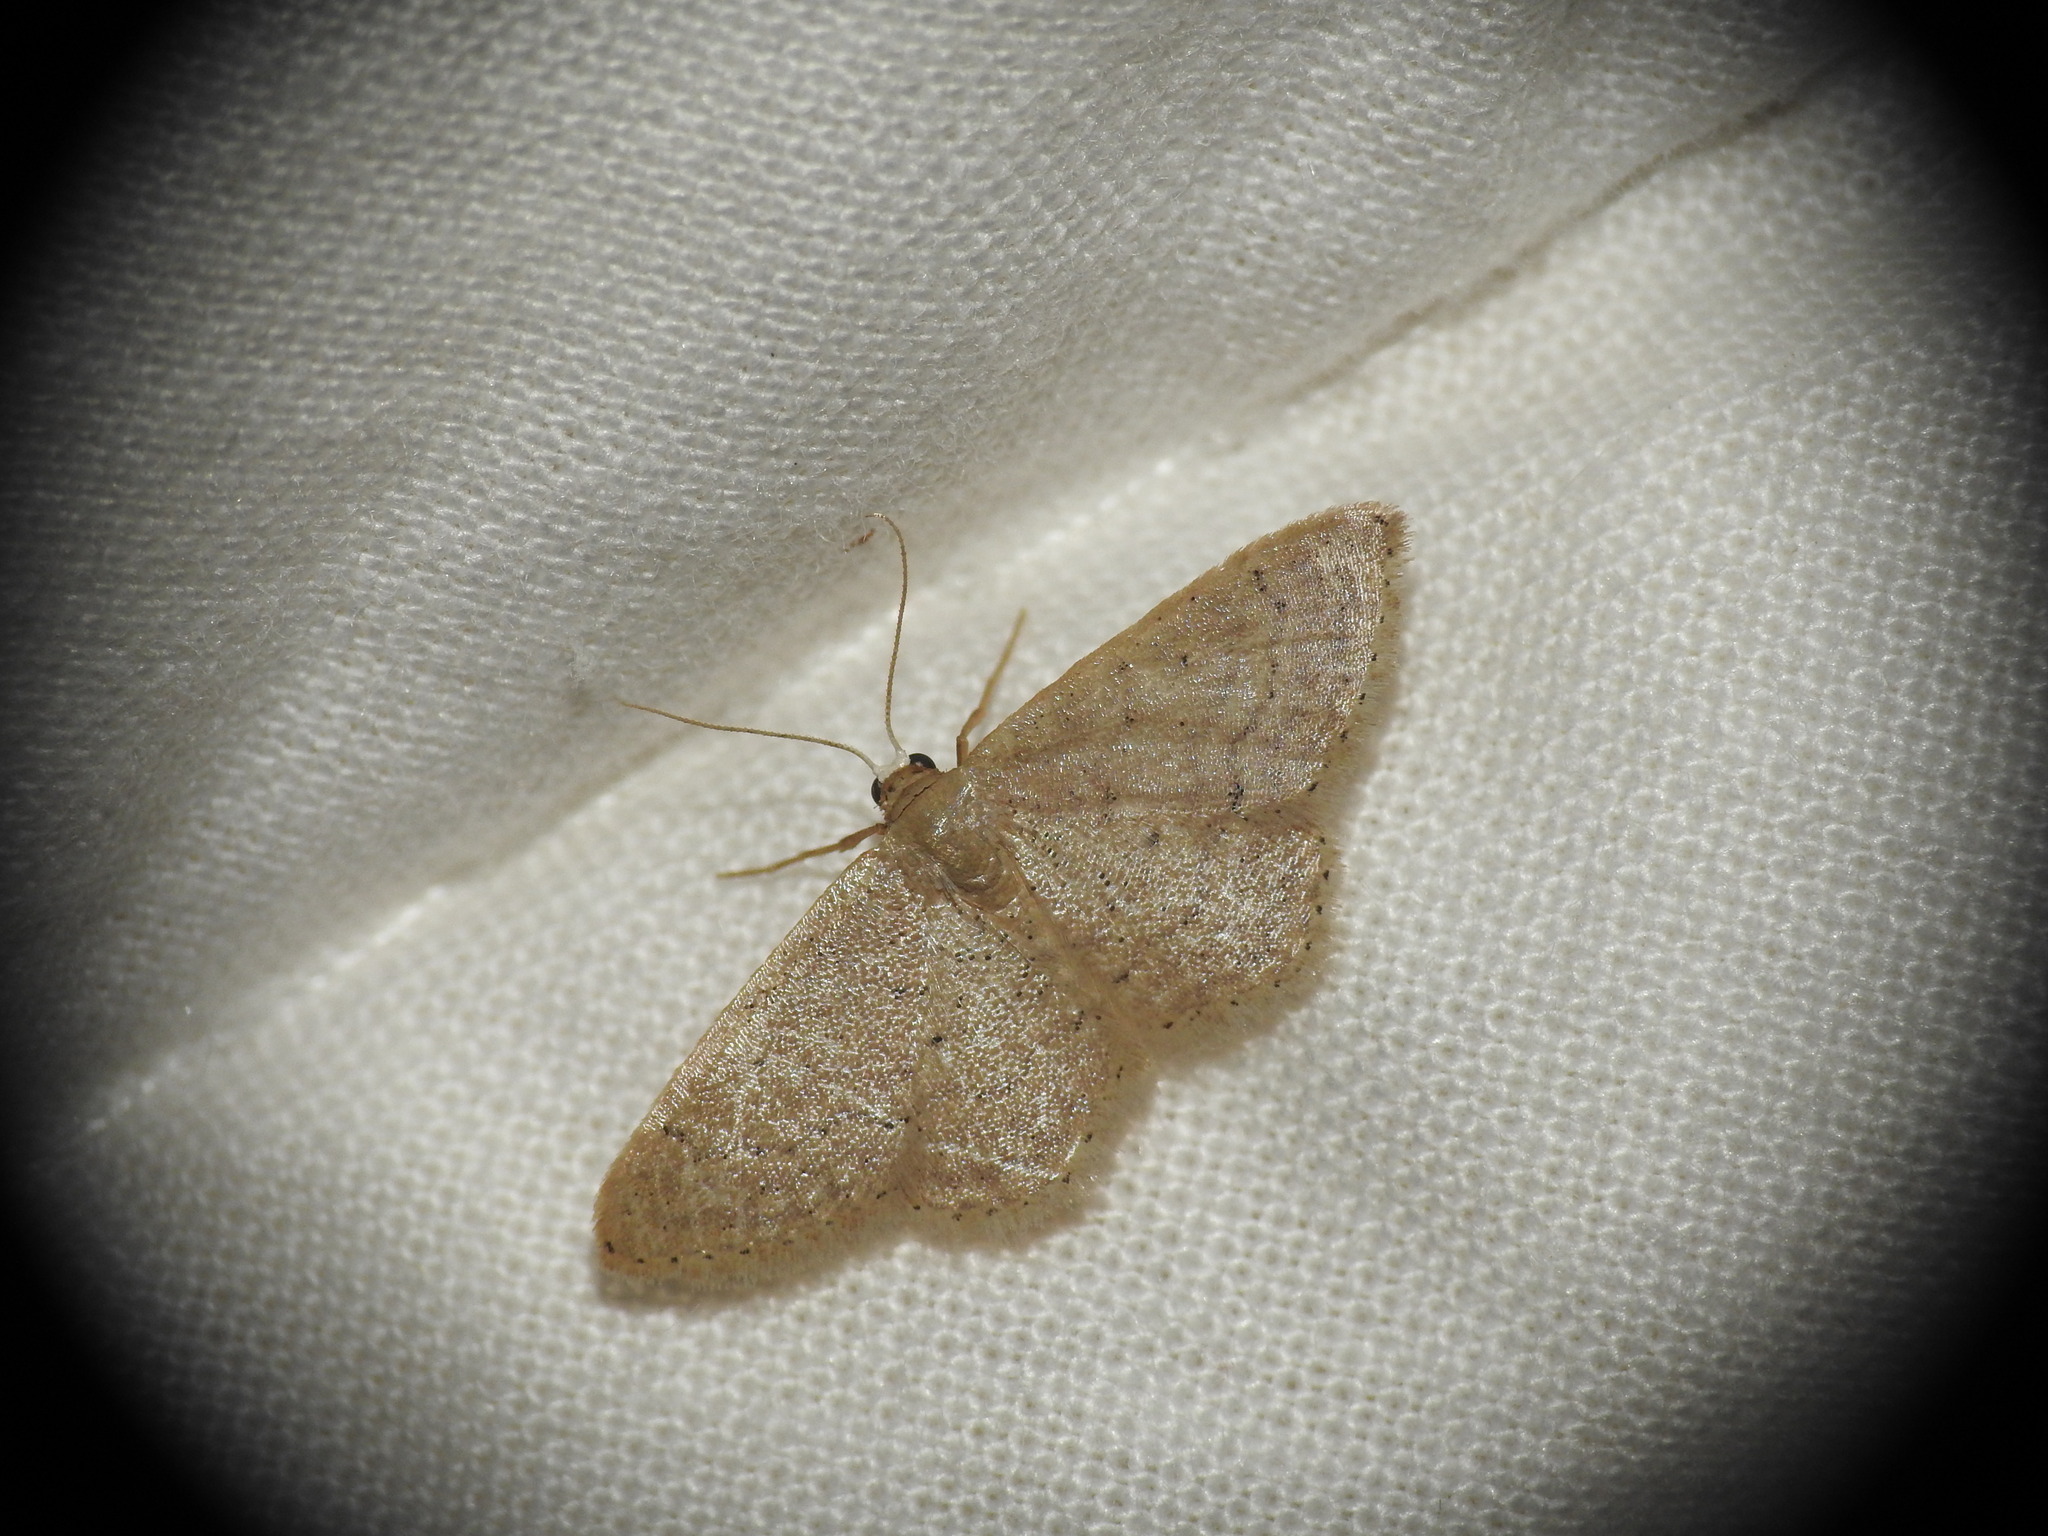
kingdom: Animalia
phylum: Arthropoda
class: Insecta
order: Lepidoptera
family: Geometridae
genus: Idaea
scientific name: Idaea obsoletaria
